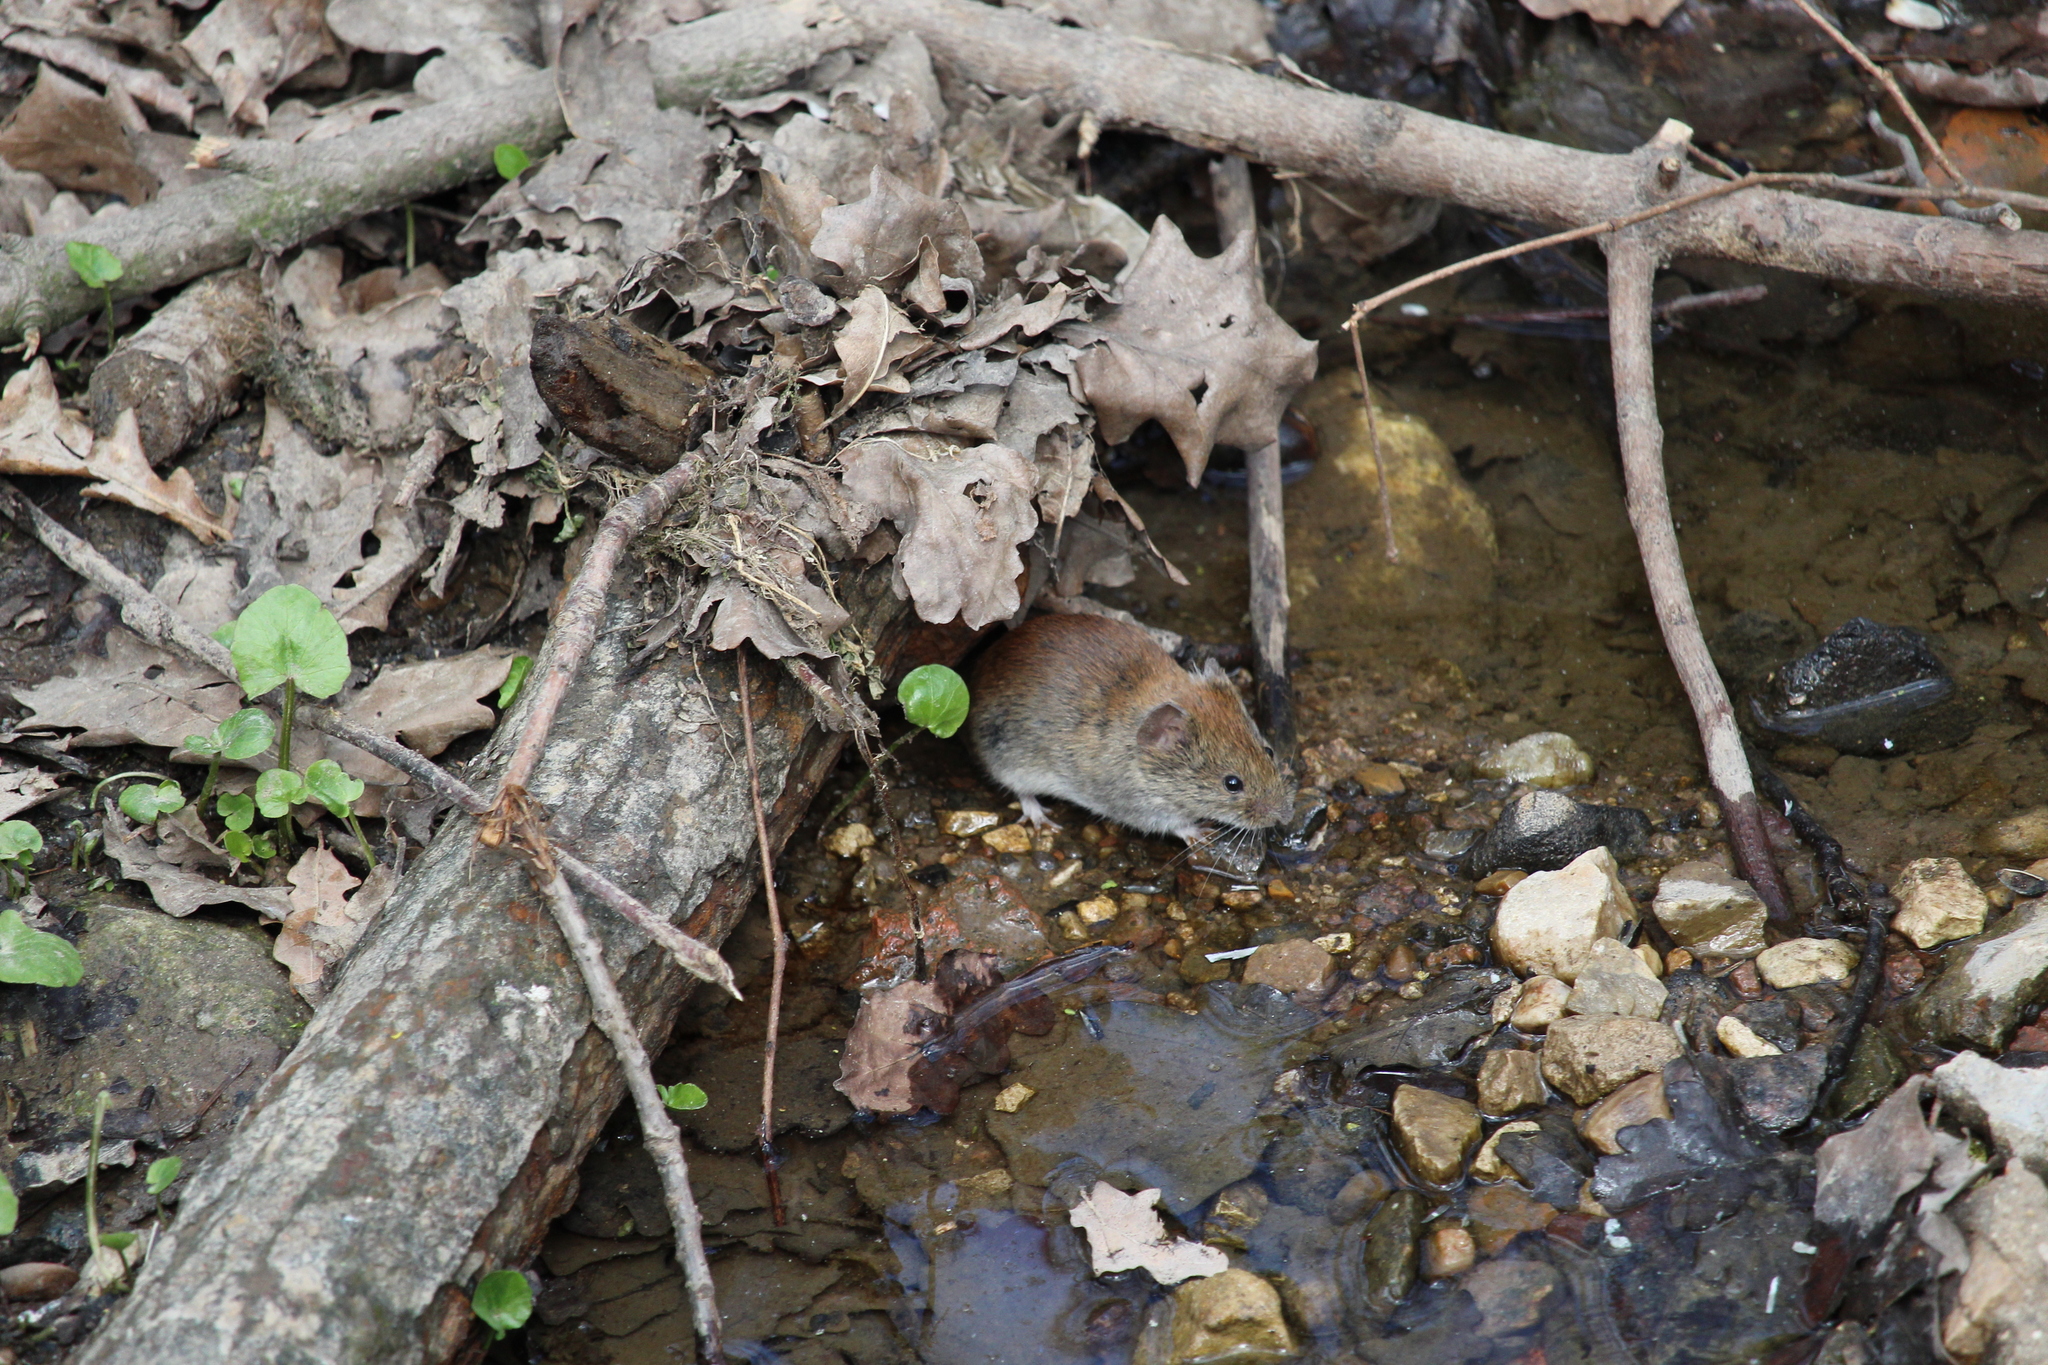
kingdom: Animalia
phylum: Chordata
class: Mammalia
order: Rodentia
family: Cricetidae
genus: Myodes
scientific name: Myodes glareolus
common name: Bank vole
